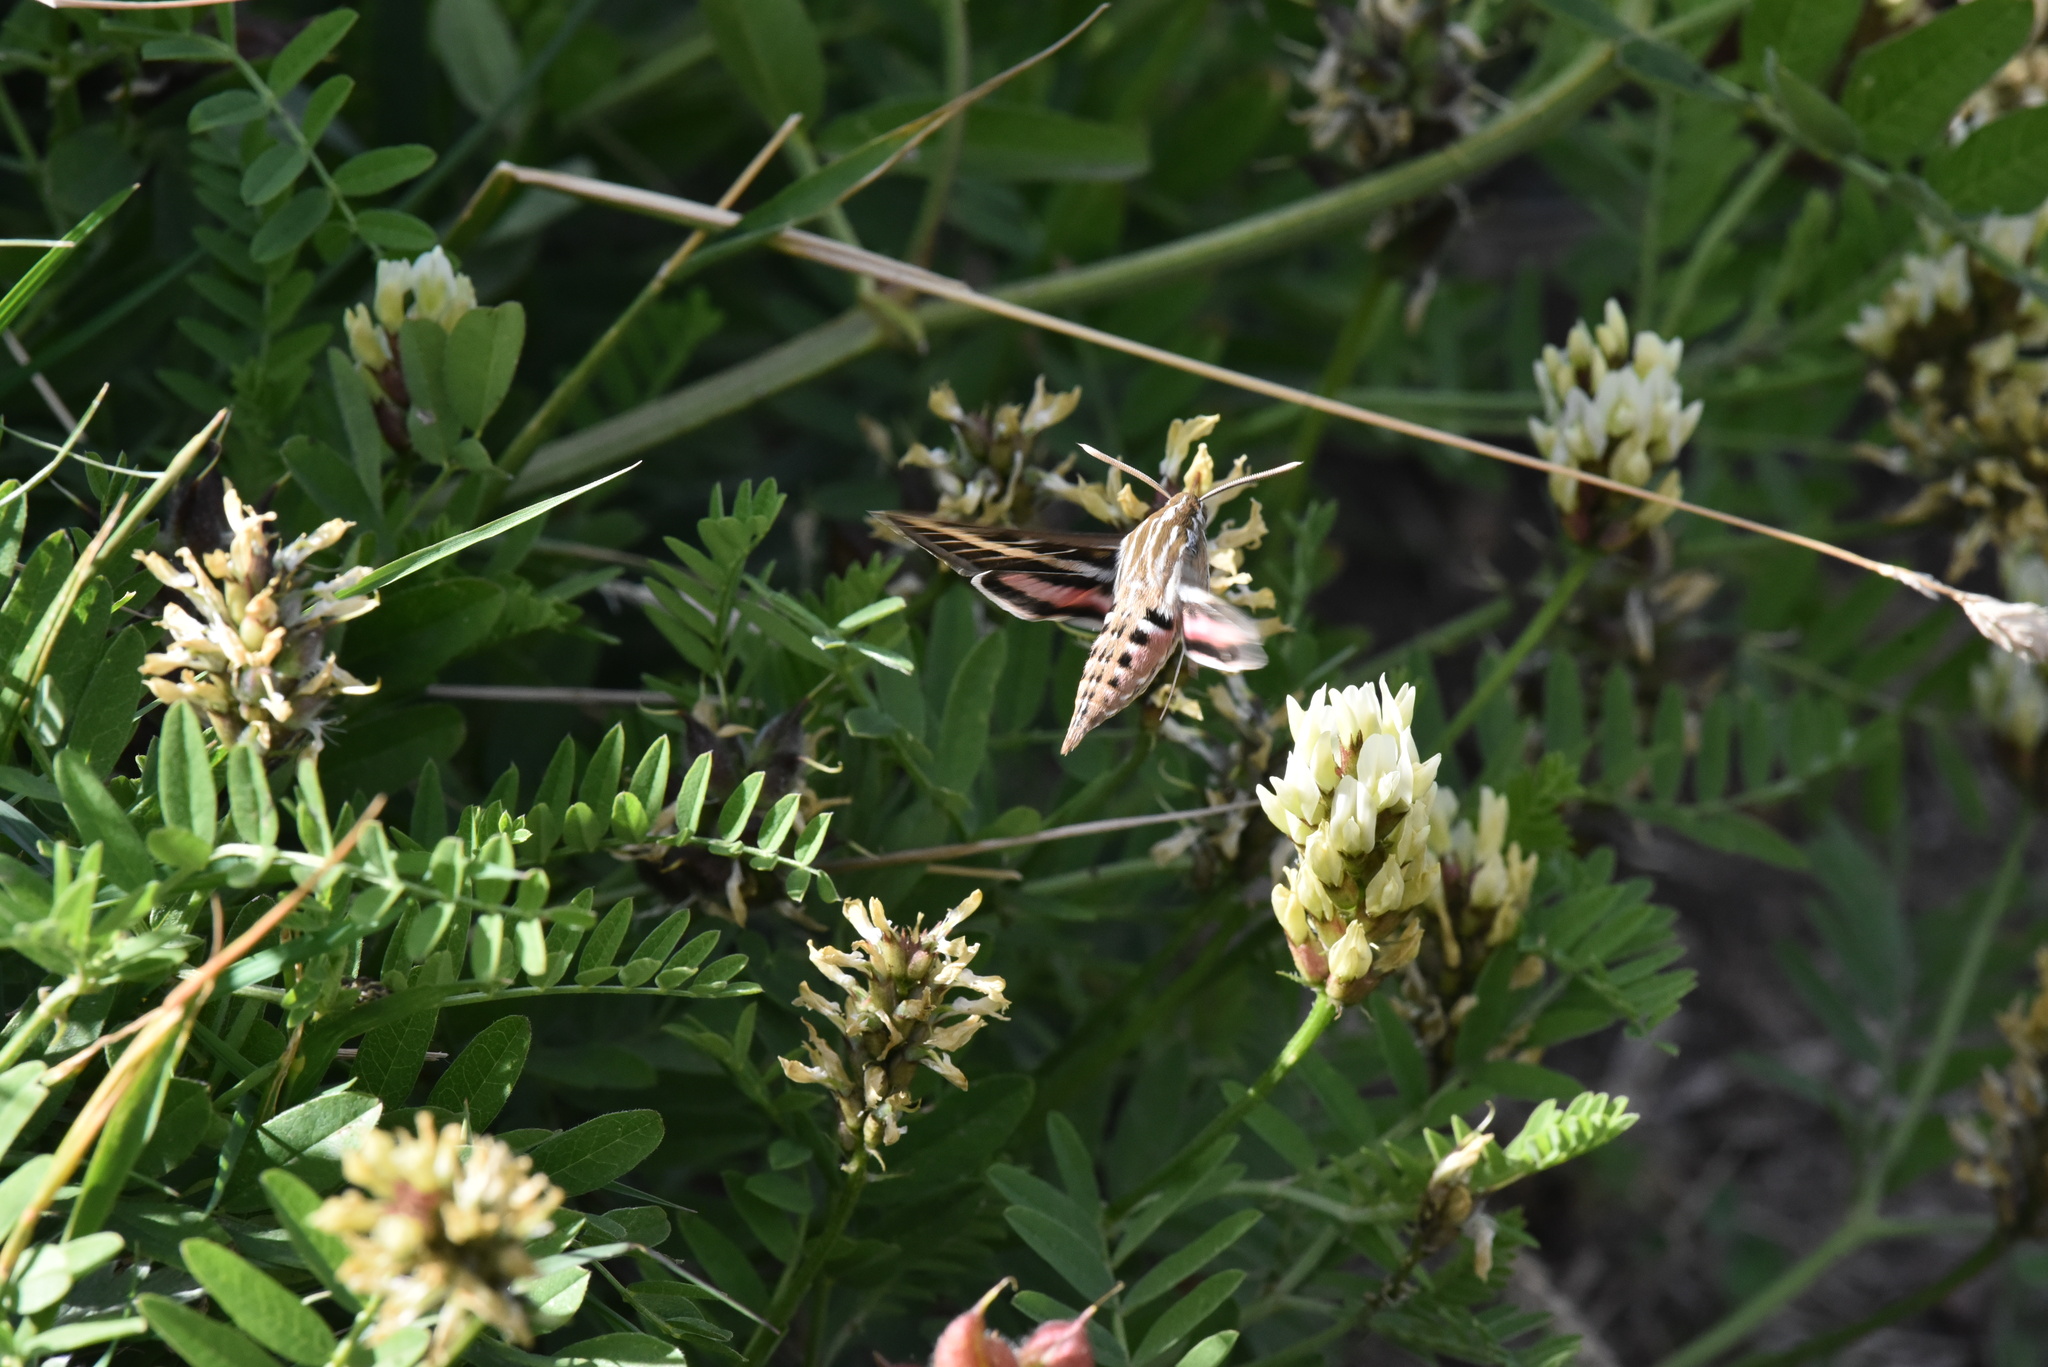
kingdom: Animalia
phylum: Arthropoda
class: Insecta
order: Lepidoptera
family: Sphingidae
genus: Hyles
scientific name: Hyles lineata
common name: White-lined sphinx
